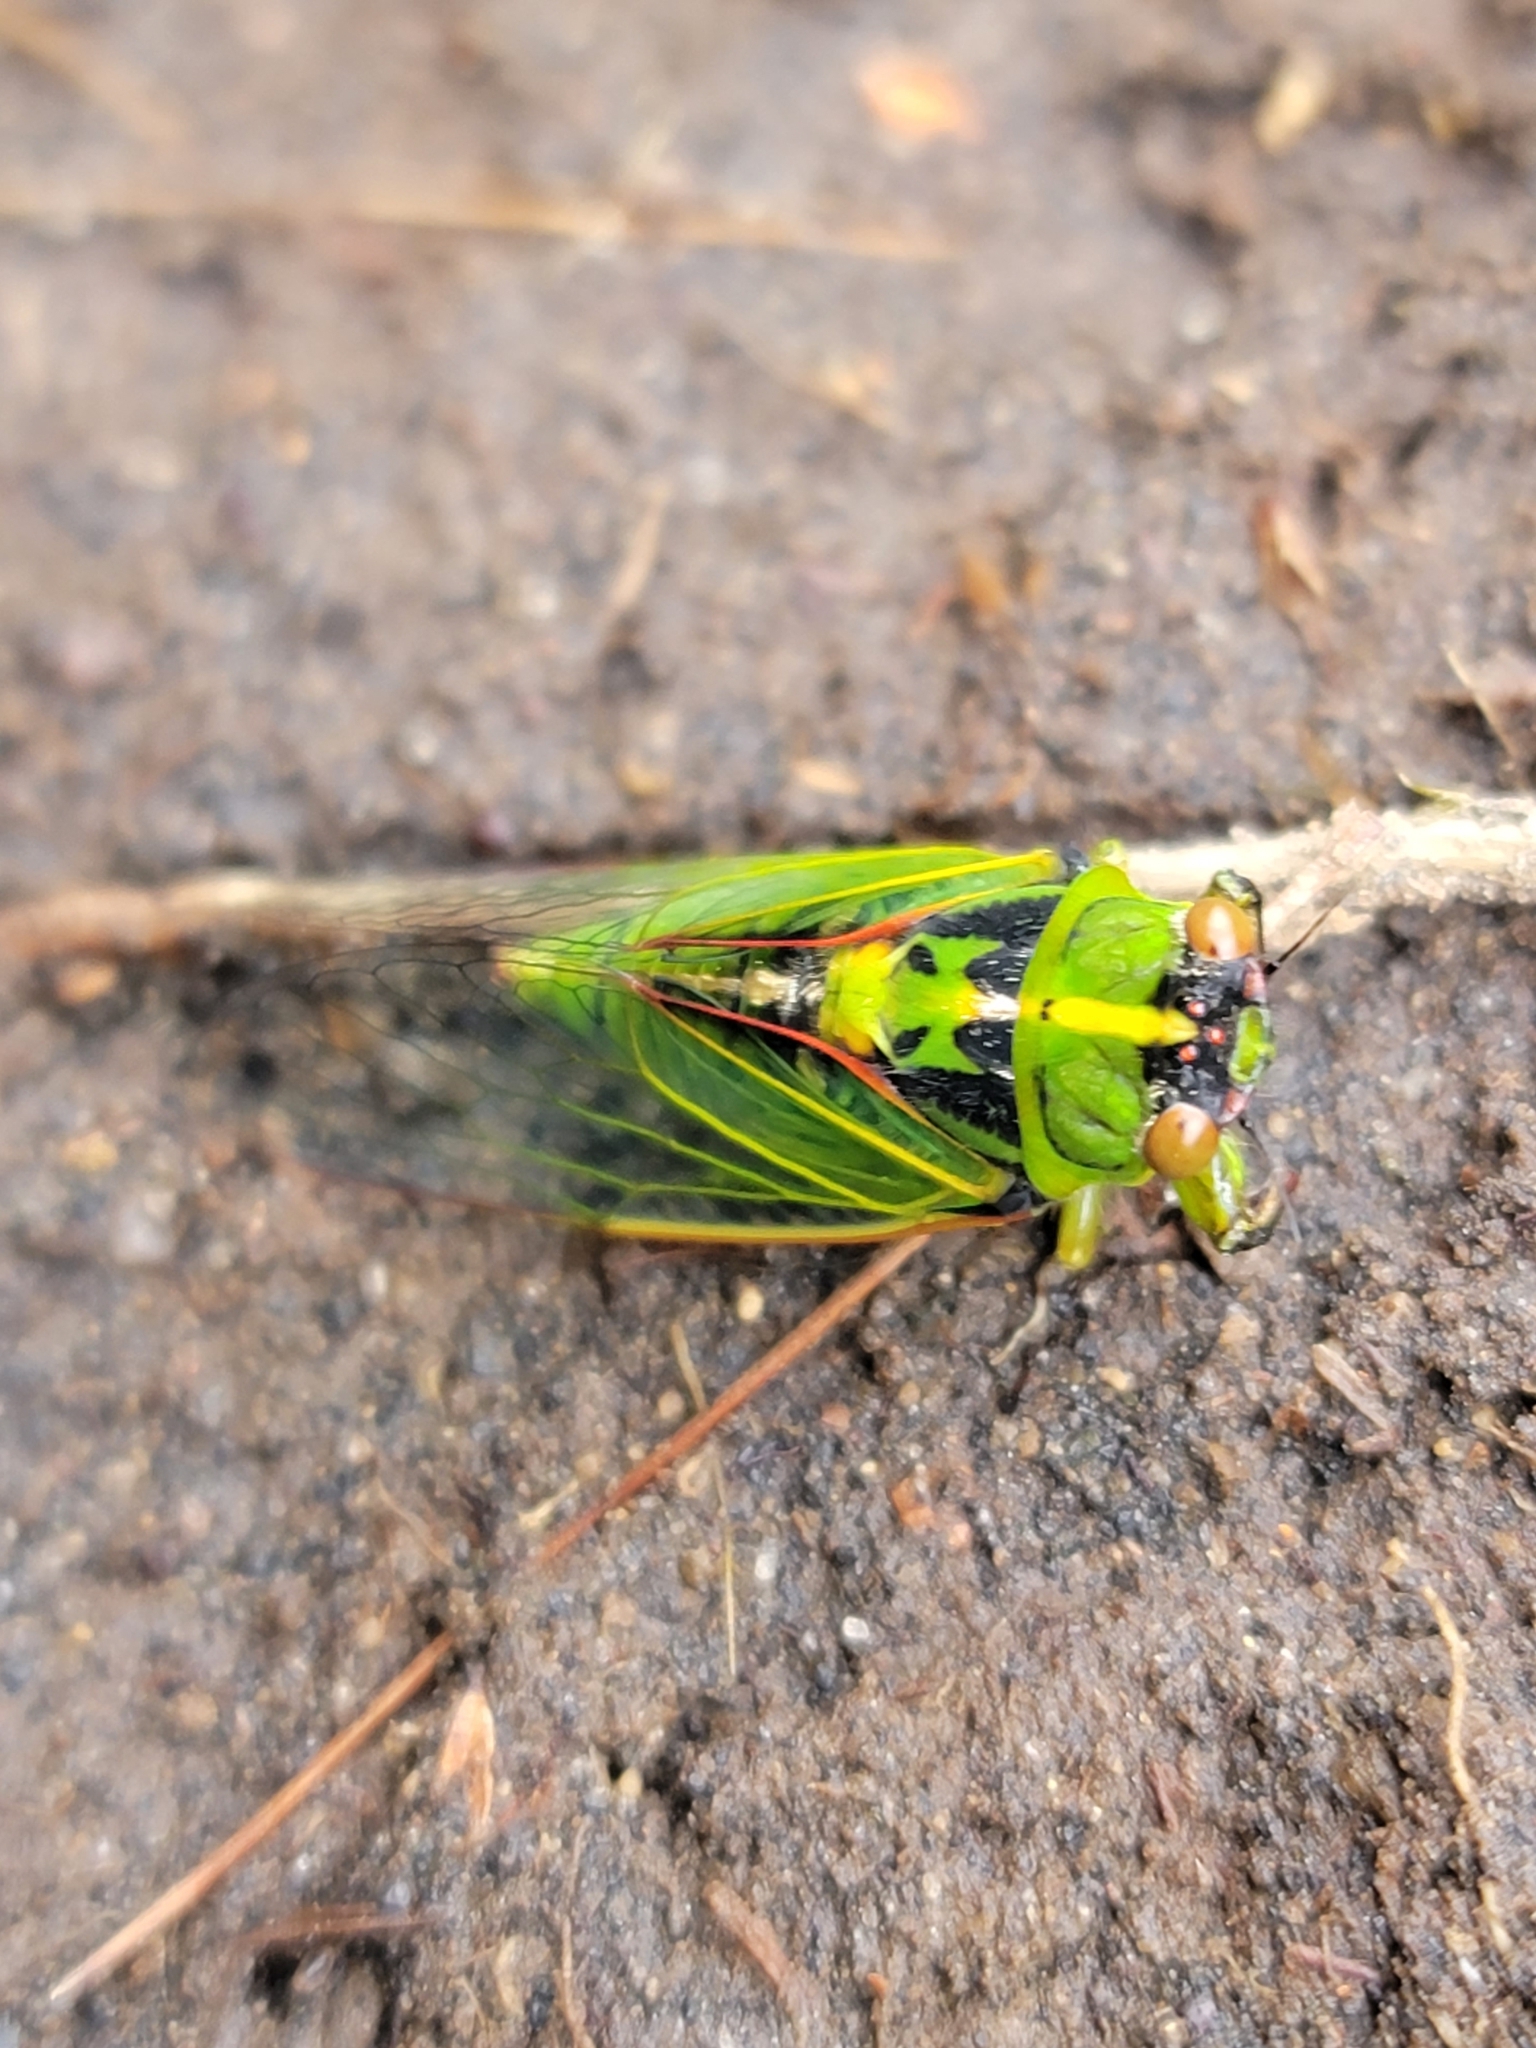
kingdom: Animalia
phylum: Arthropoda
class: Insecta
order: Hemiptera
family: Cicadidae
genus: Kikihia
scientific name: Kikihia cutora
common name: Northern snoring cicada
